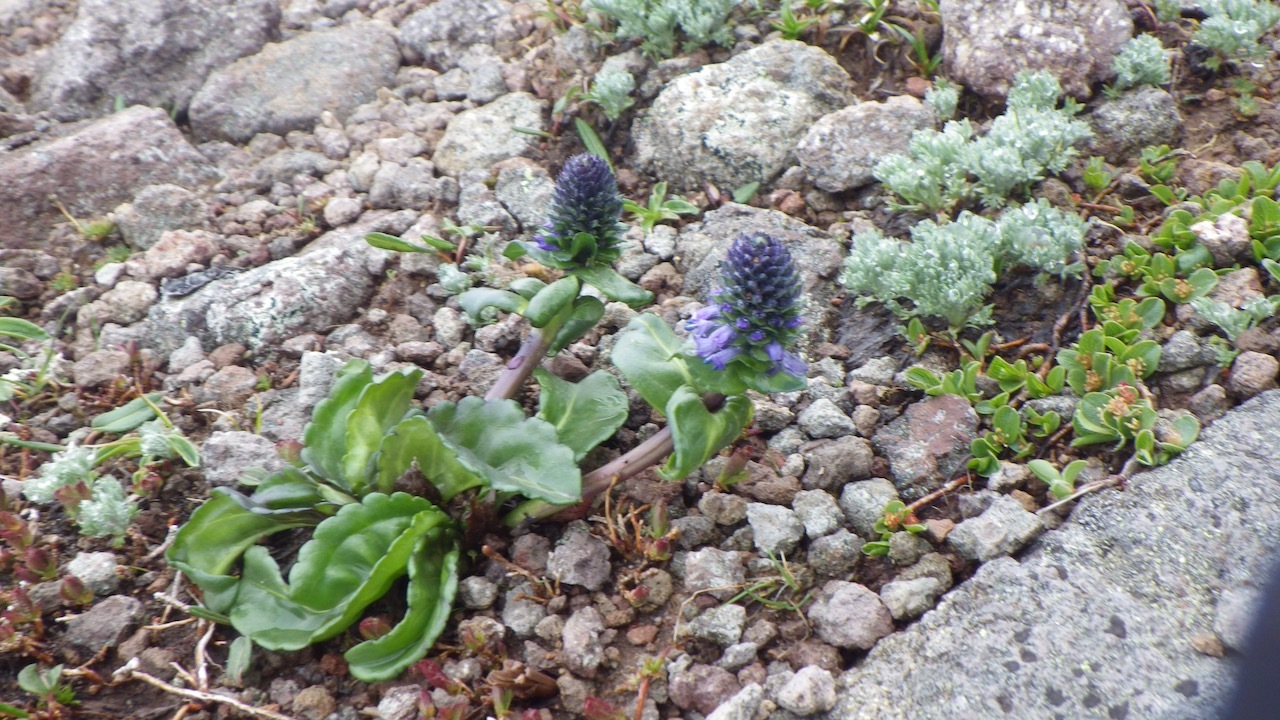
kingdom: Plantae
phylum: Tracheophyta
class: Magnoliopsida
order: Lamiales
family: Plantaginaceae
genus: Lagotis
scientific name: Lagotis yesoensis
